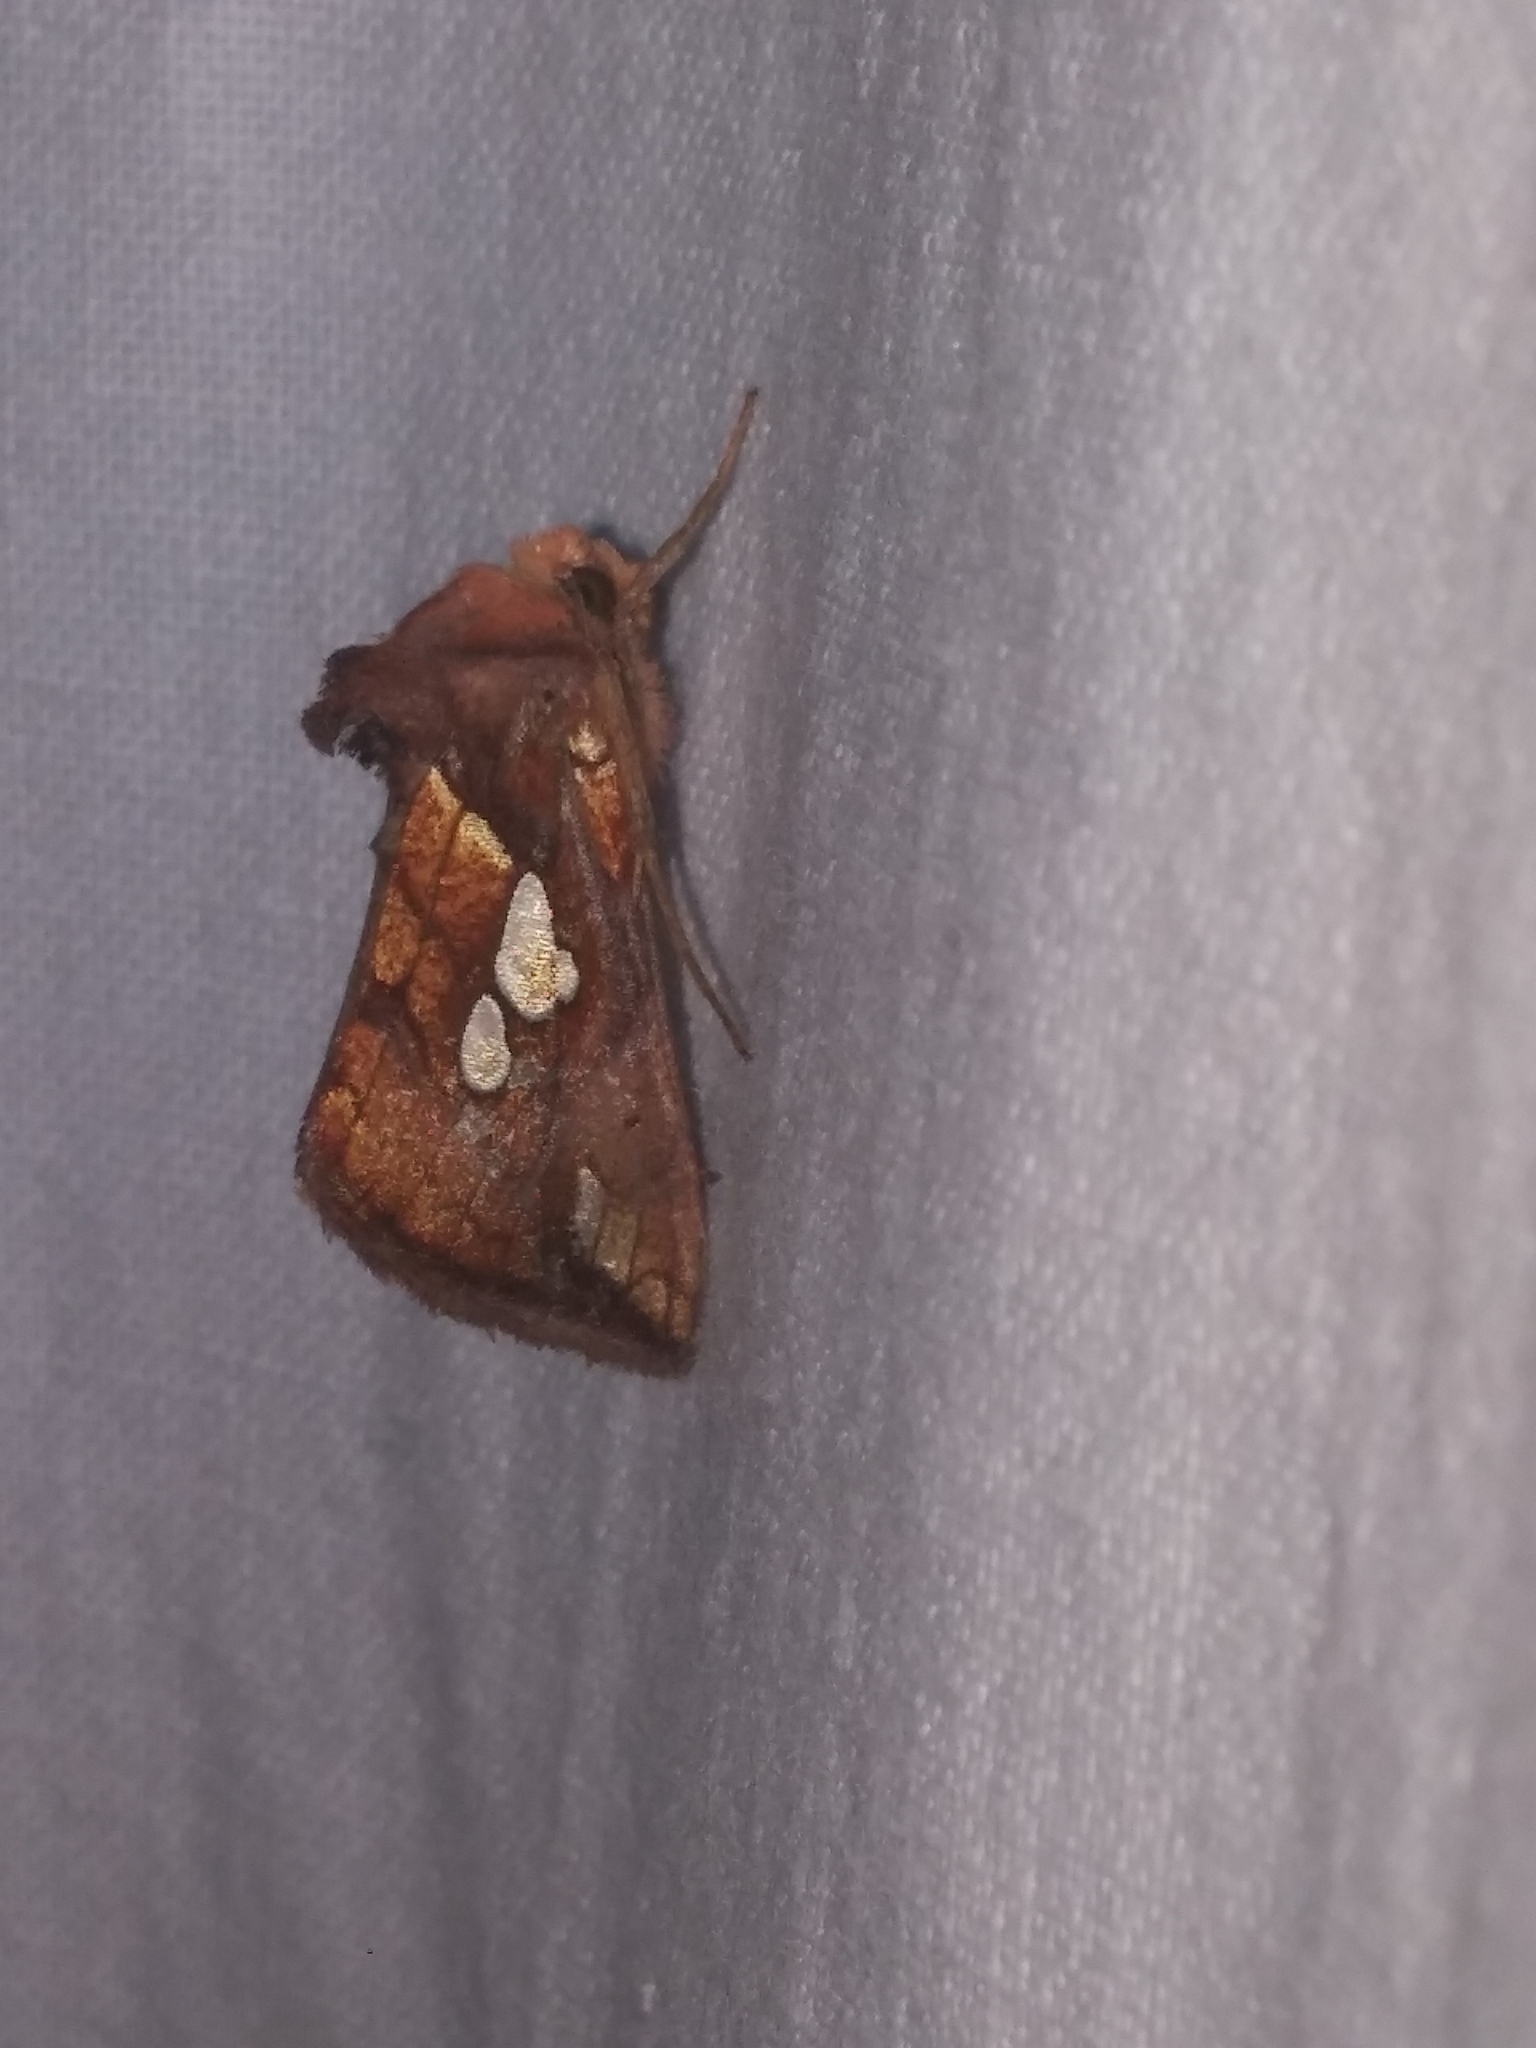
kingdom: Animalia
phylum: Arthropoda
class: Insecta
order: Lepidoptera
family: Noctuidae
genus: Plusia
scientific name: Plusia putnami
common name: Lempke's gold spot
